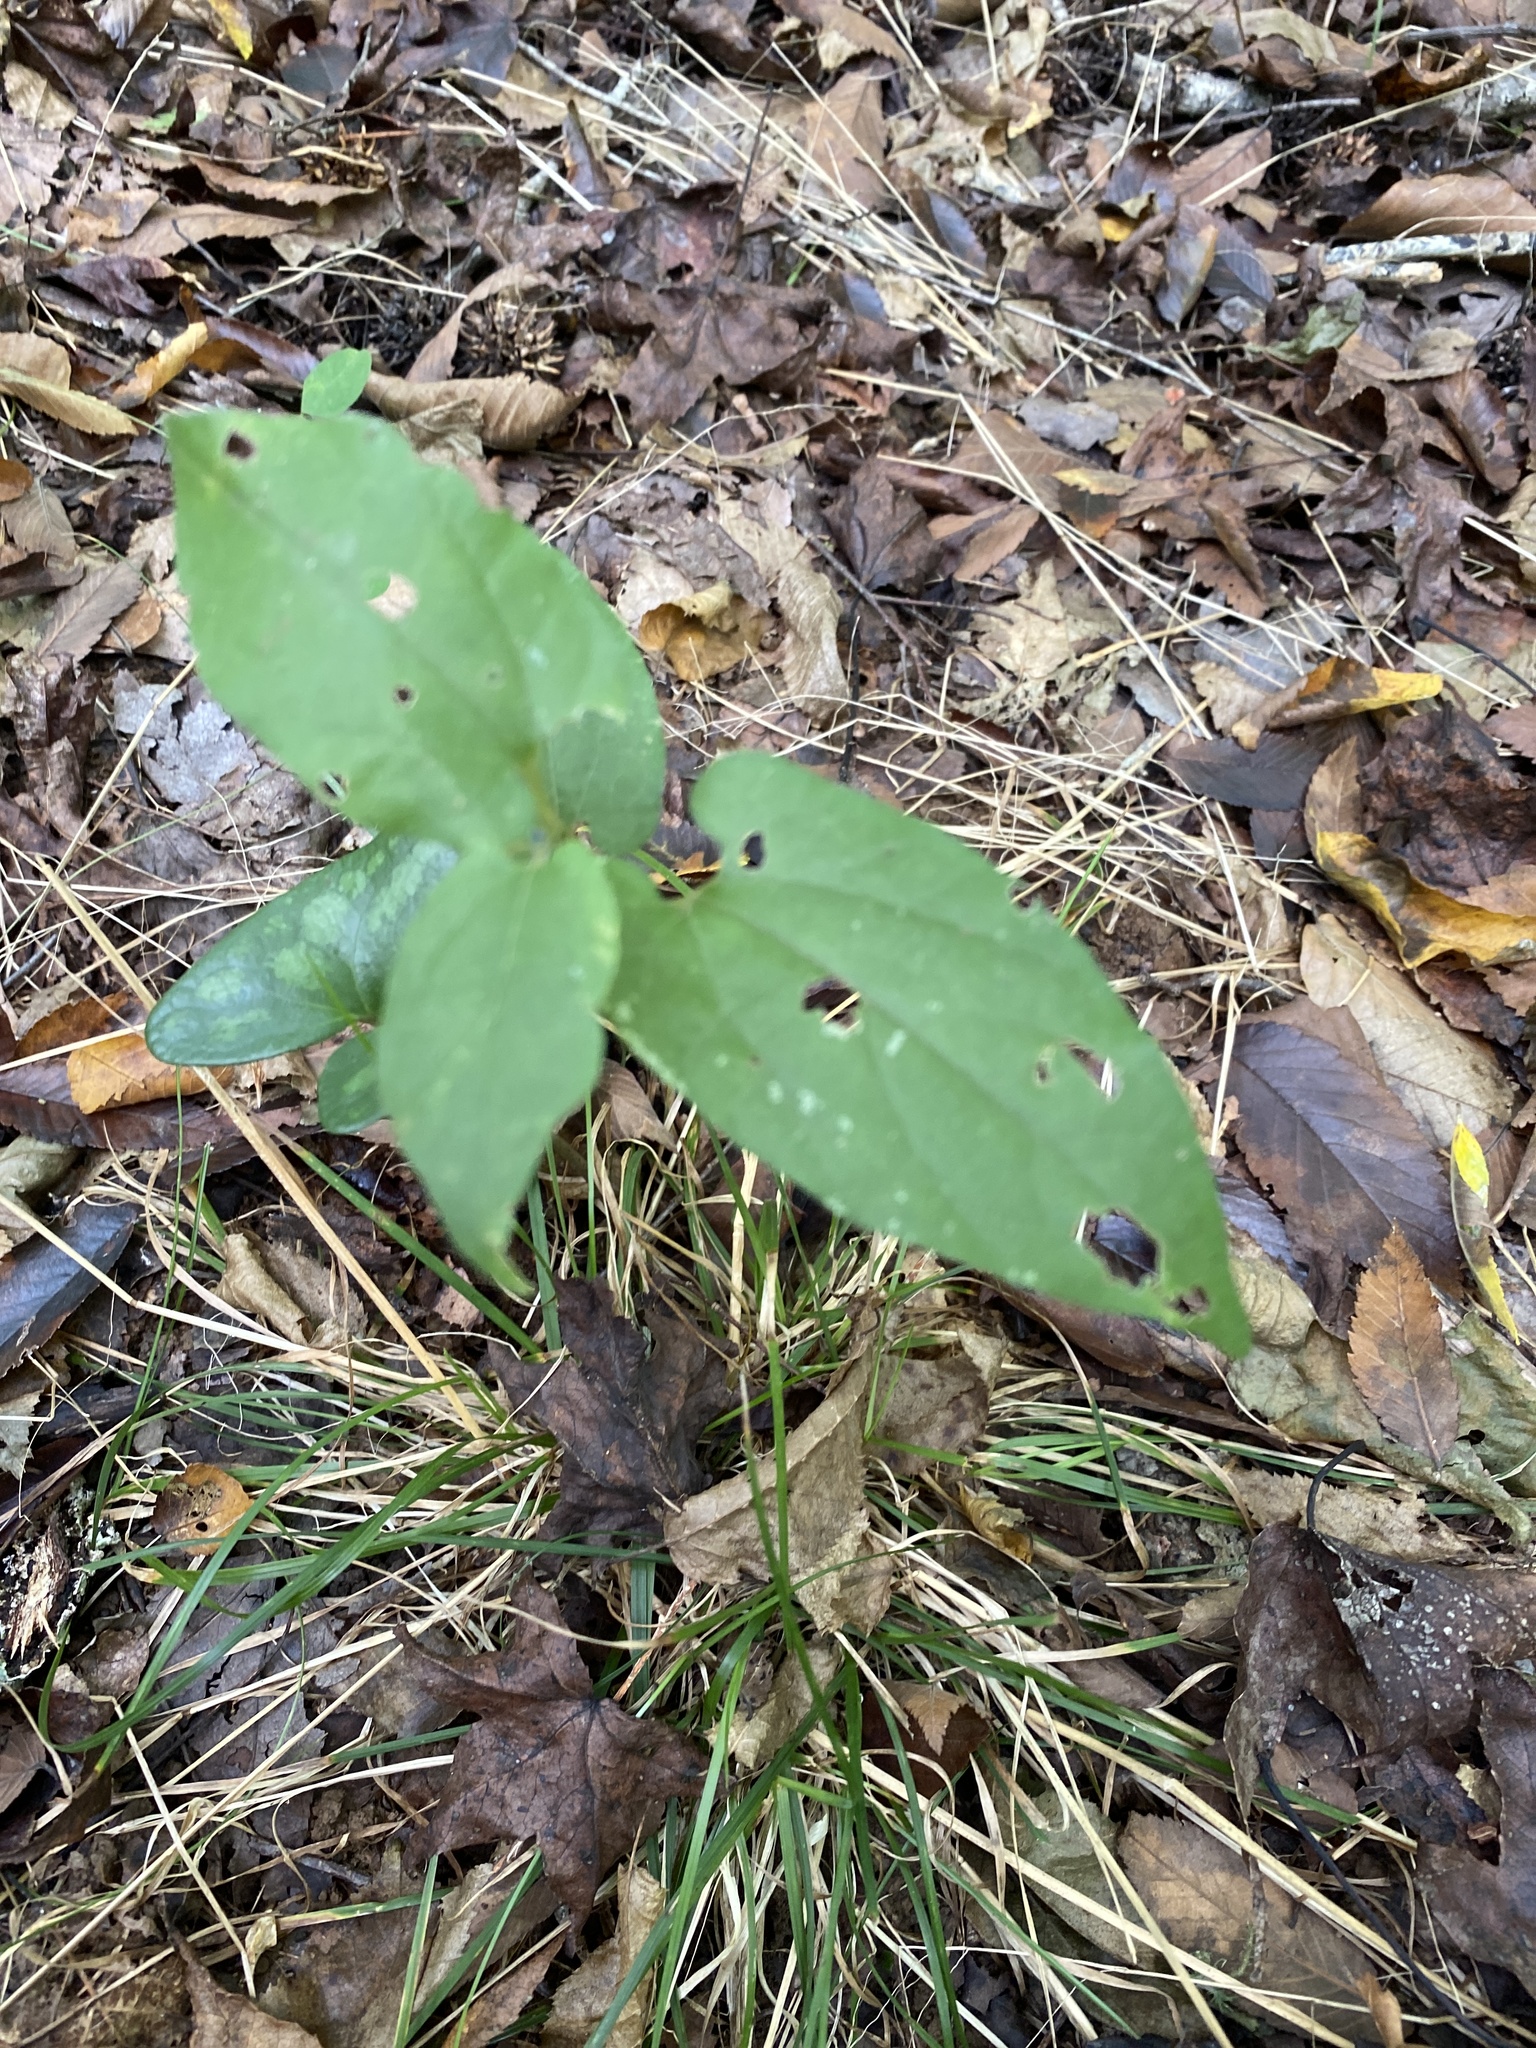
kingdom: Plantae
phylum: Tracheophyta
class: Magnoliopsida
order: Piperales
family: Aristolochiaceae
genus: Endodeca
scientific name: Endodeca serpentaria
